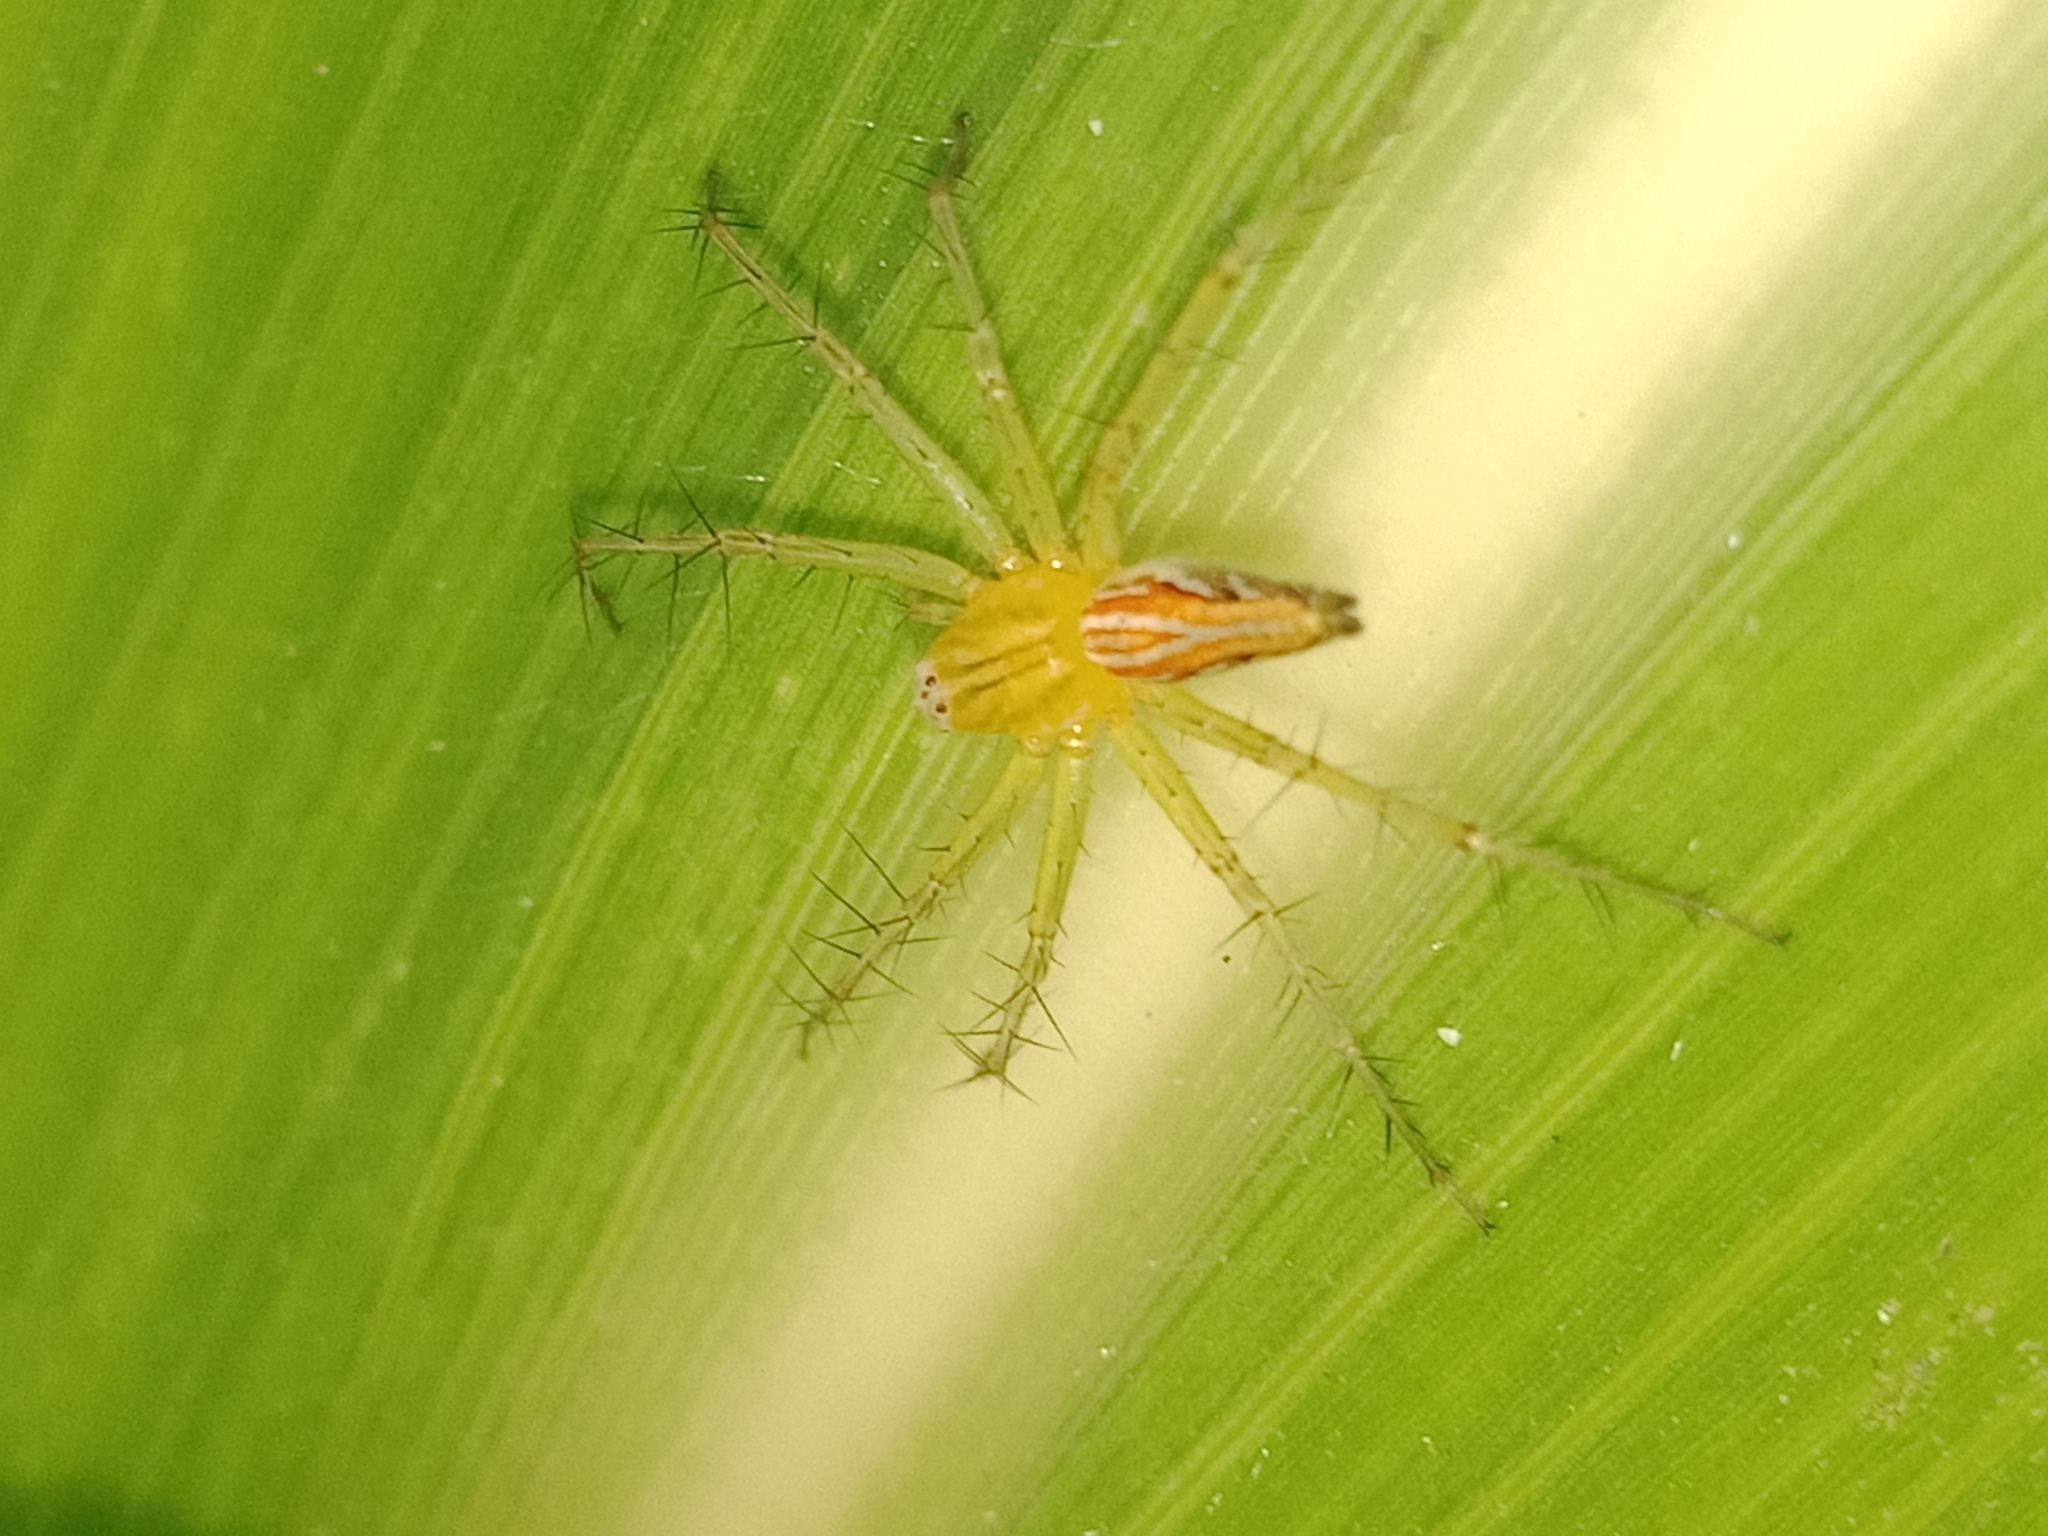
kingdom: Animalia
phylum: Arthropoda
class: Arachnida
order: Araneae
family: Oxyopidae
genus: Oxyopes
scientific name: Oxyopes macilentus
